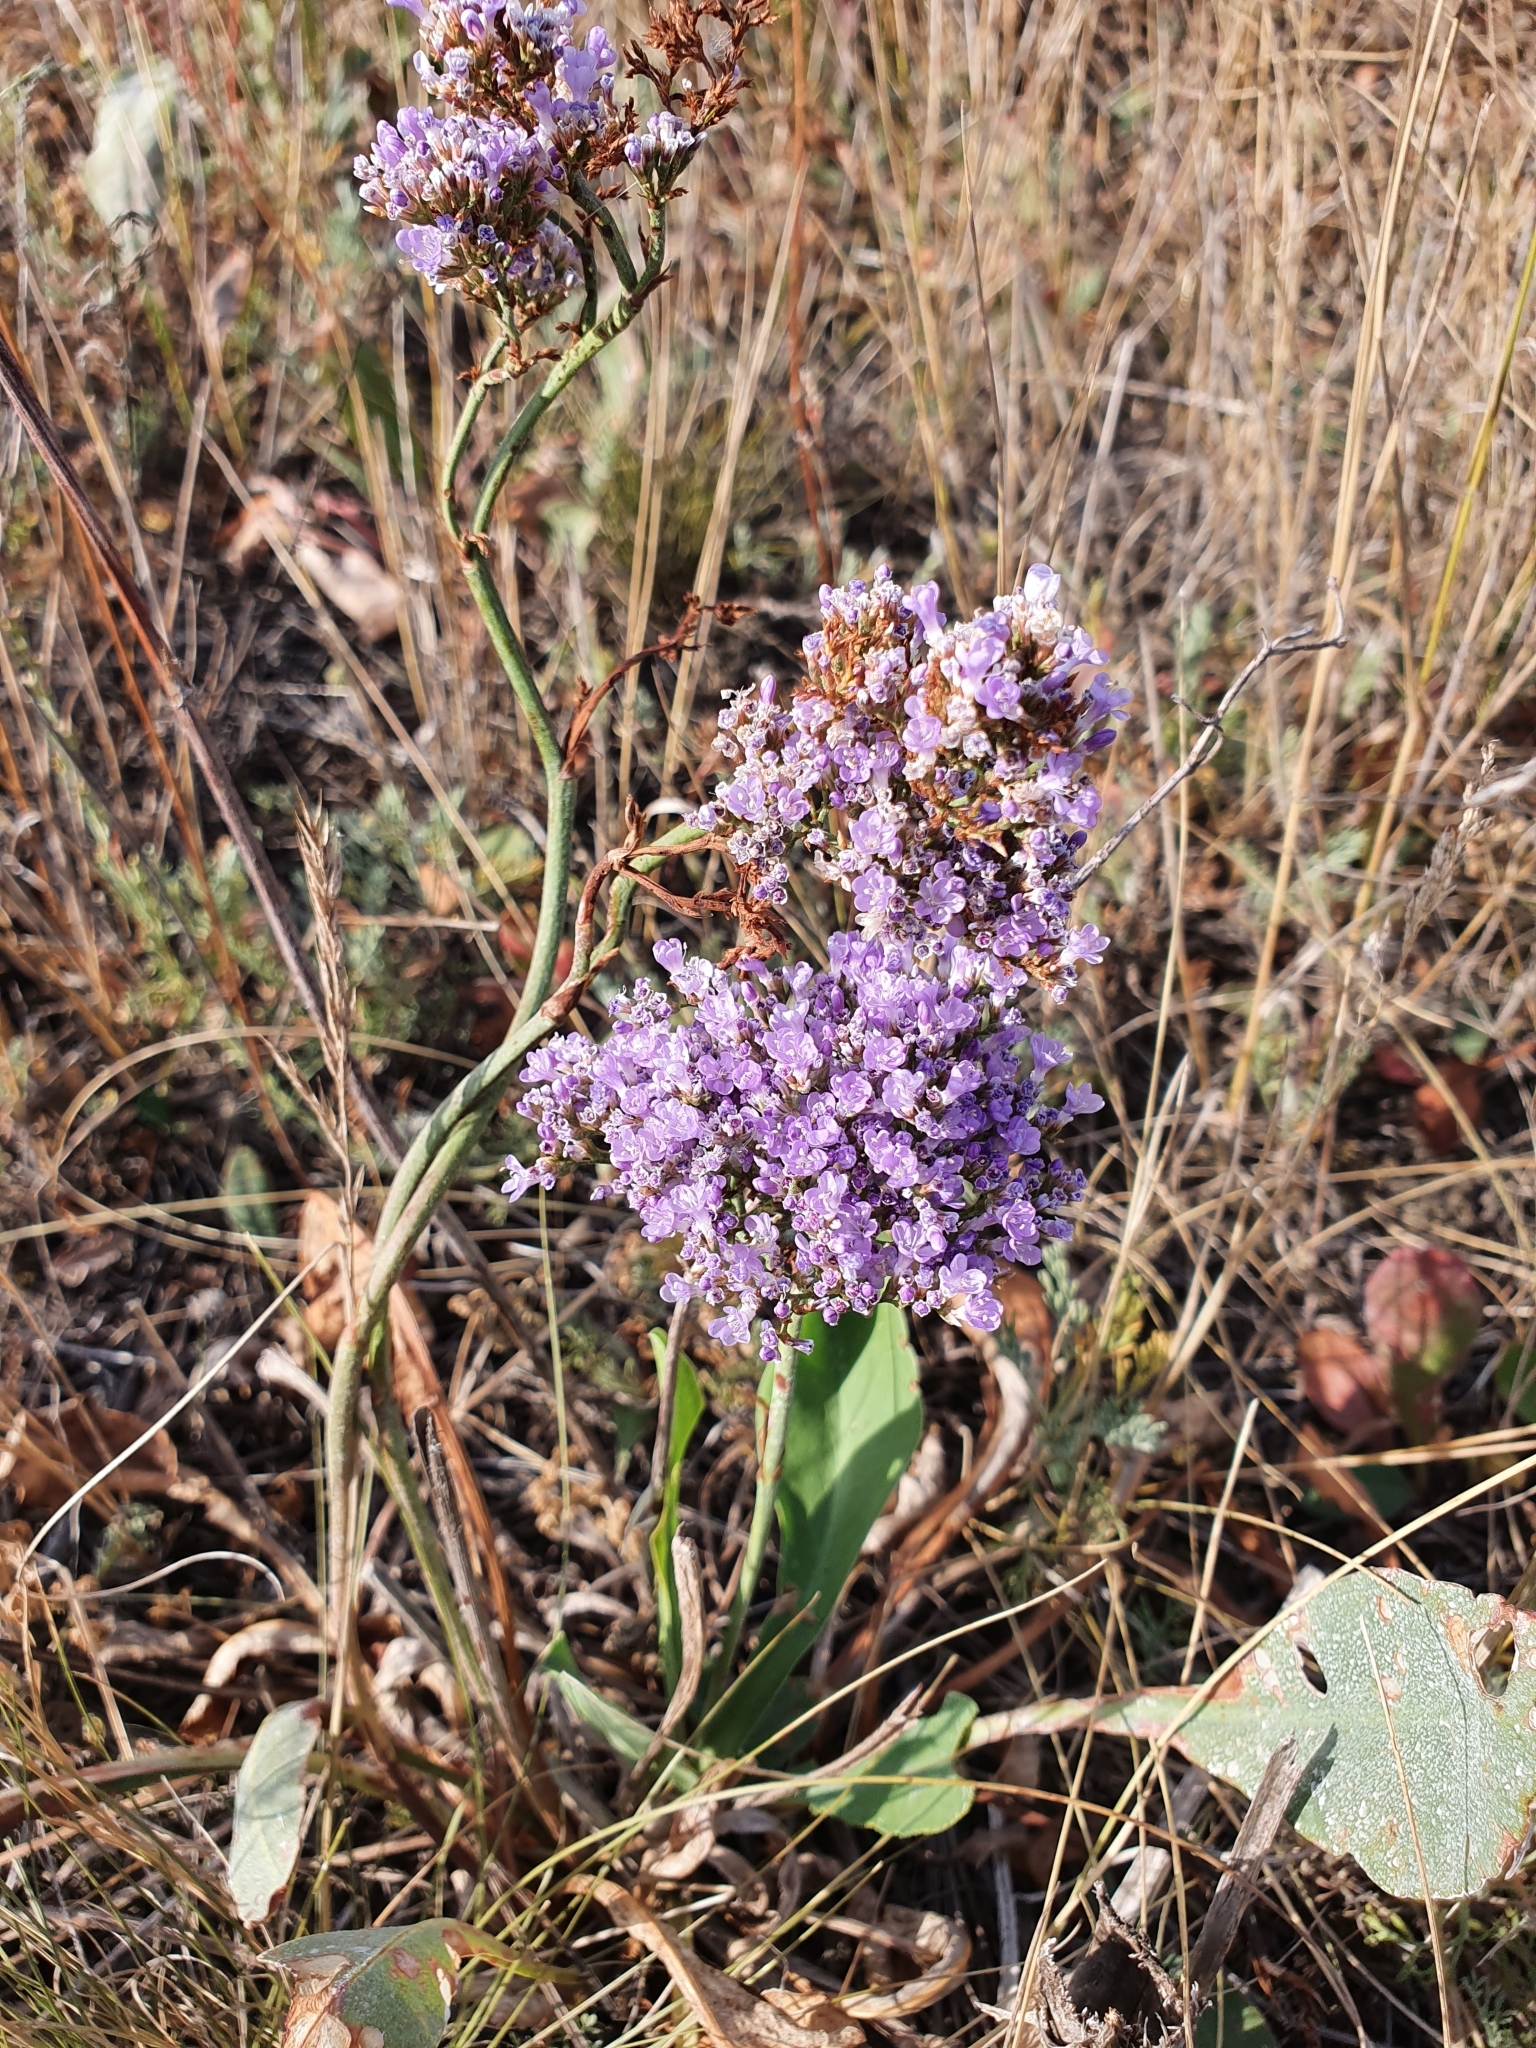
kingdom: Plantae
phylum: Tracheophyta
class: Magnoliopsida
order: Caryophyllales
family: Plumbaginaceae
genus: Limonium
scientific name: Limonium gmelini
